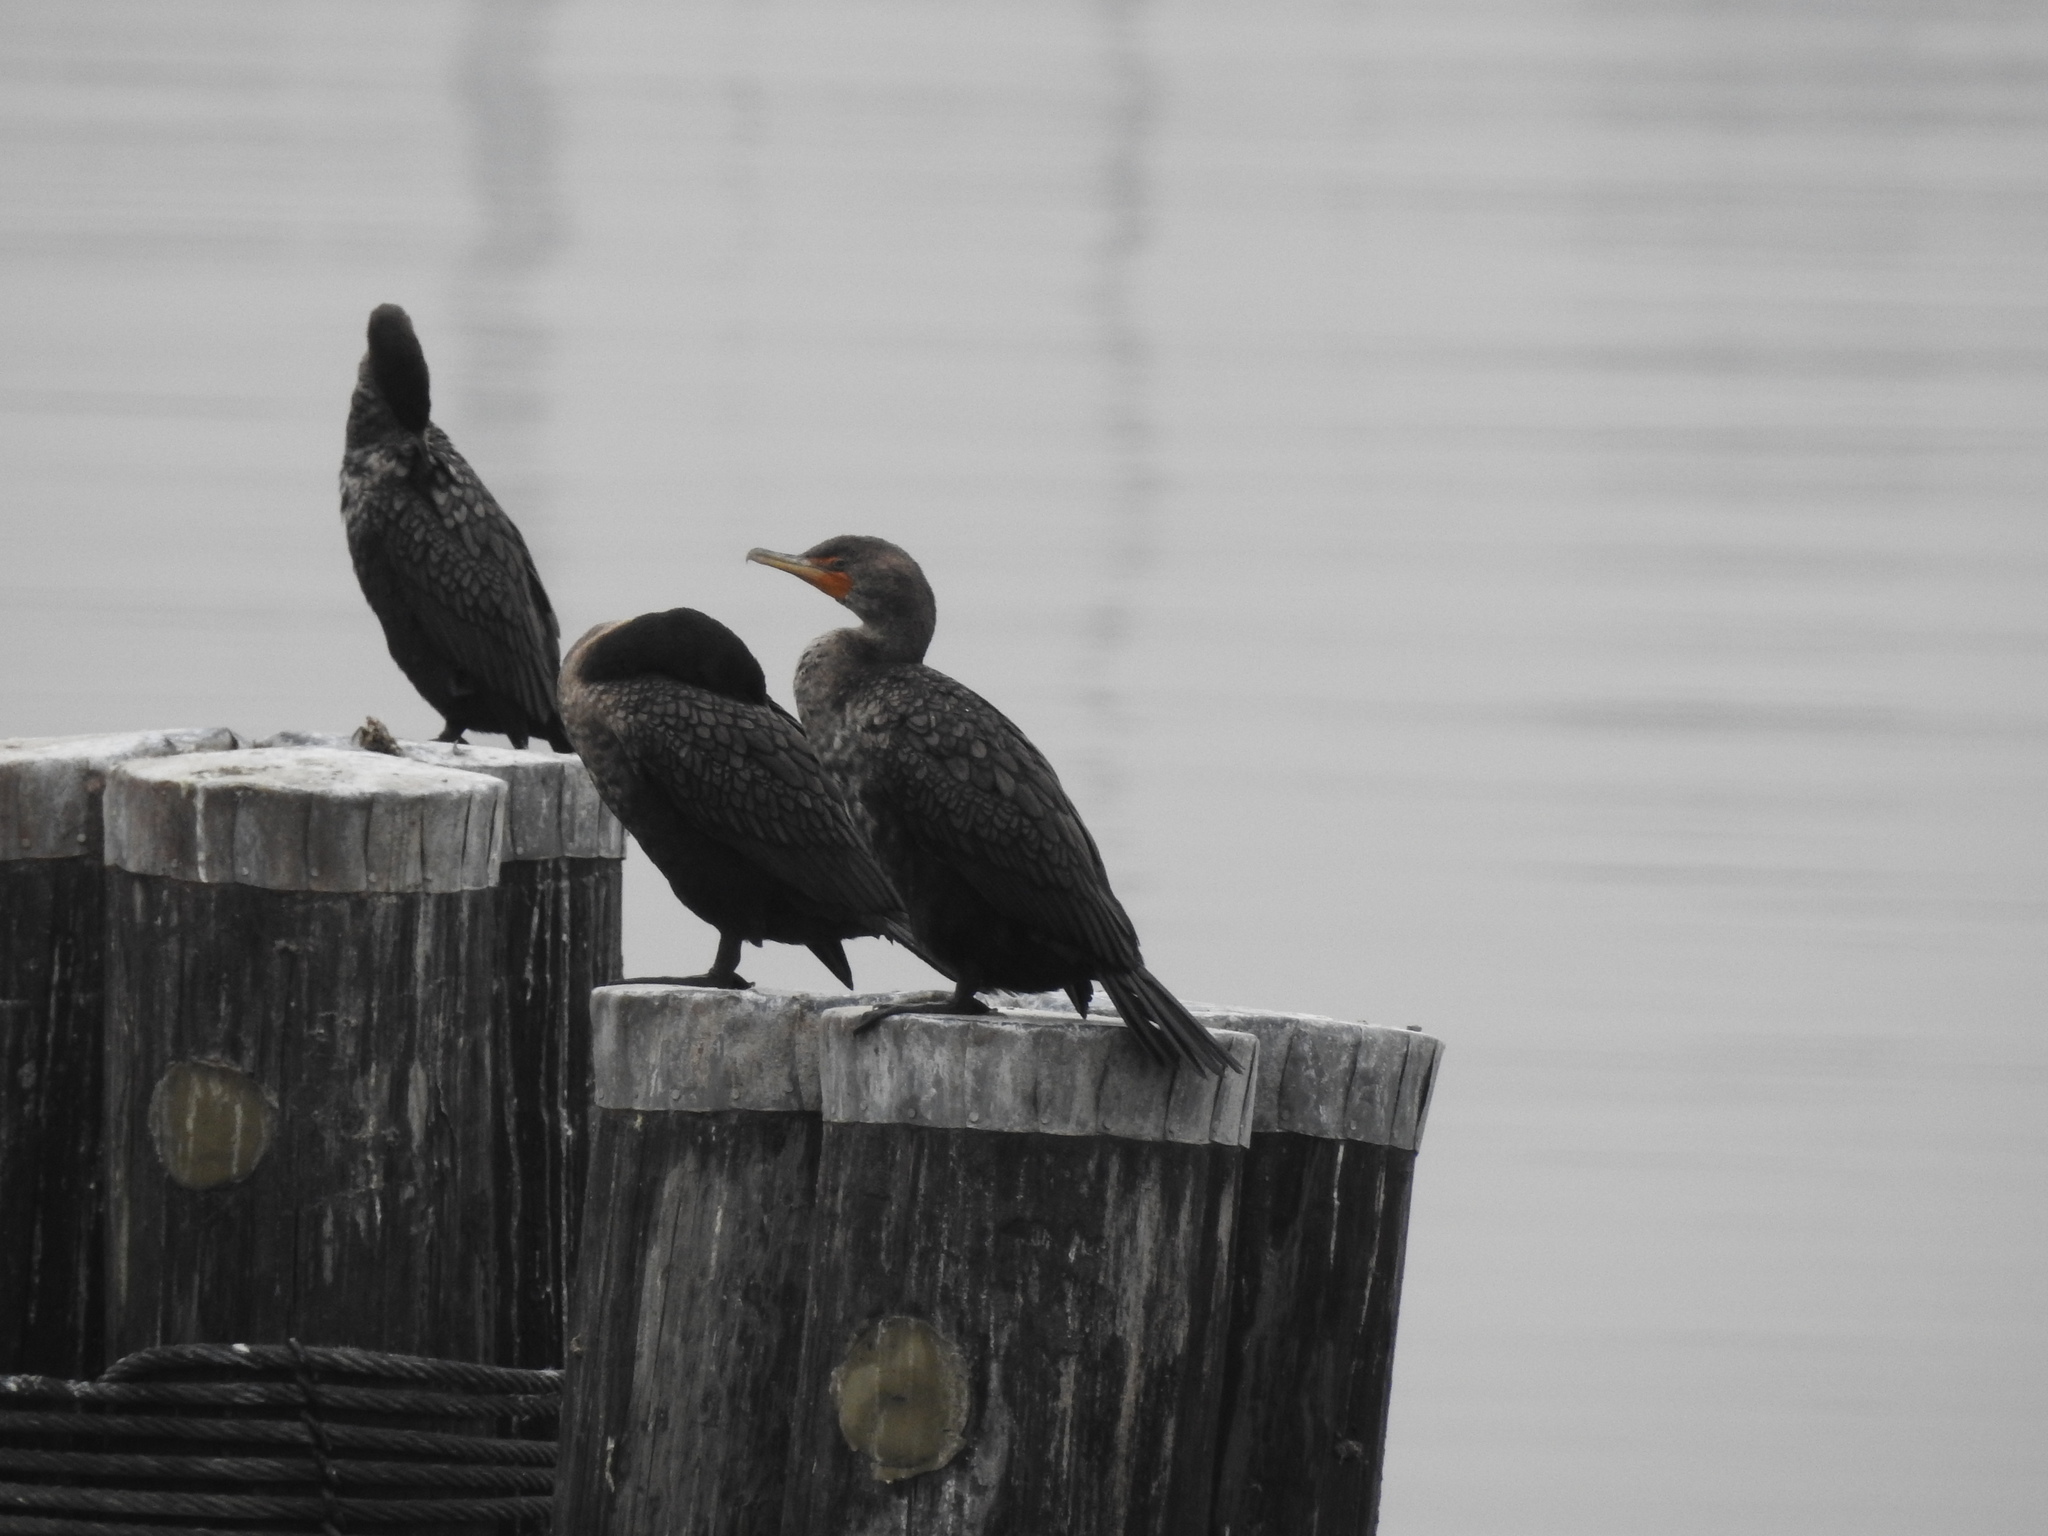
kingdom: Animalia
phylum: Chordata
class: Aves
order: Suliformes
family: Phalacrocoracidae
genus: Phalacrocorax
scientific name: Phalacrocorax auritus
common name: Double-crested cormorant
